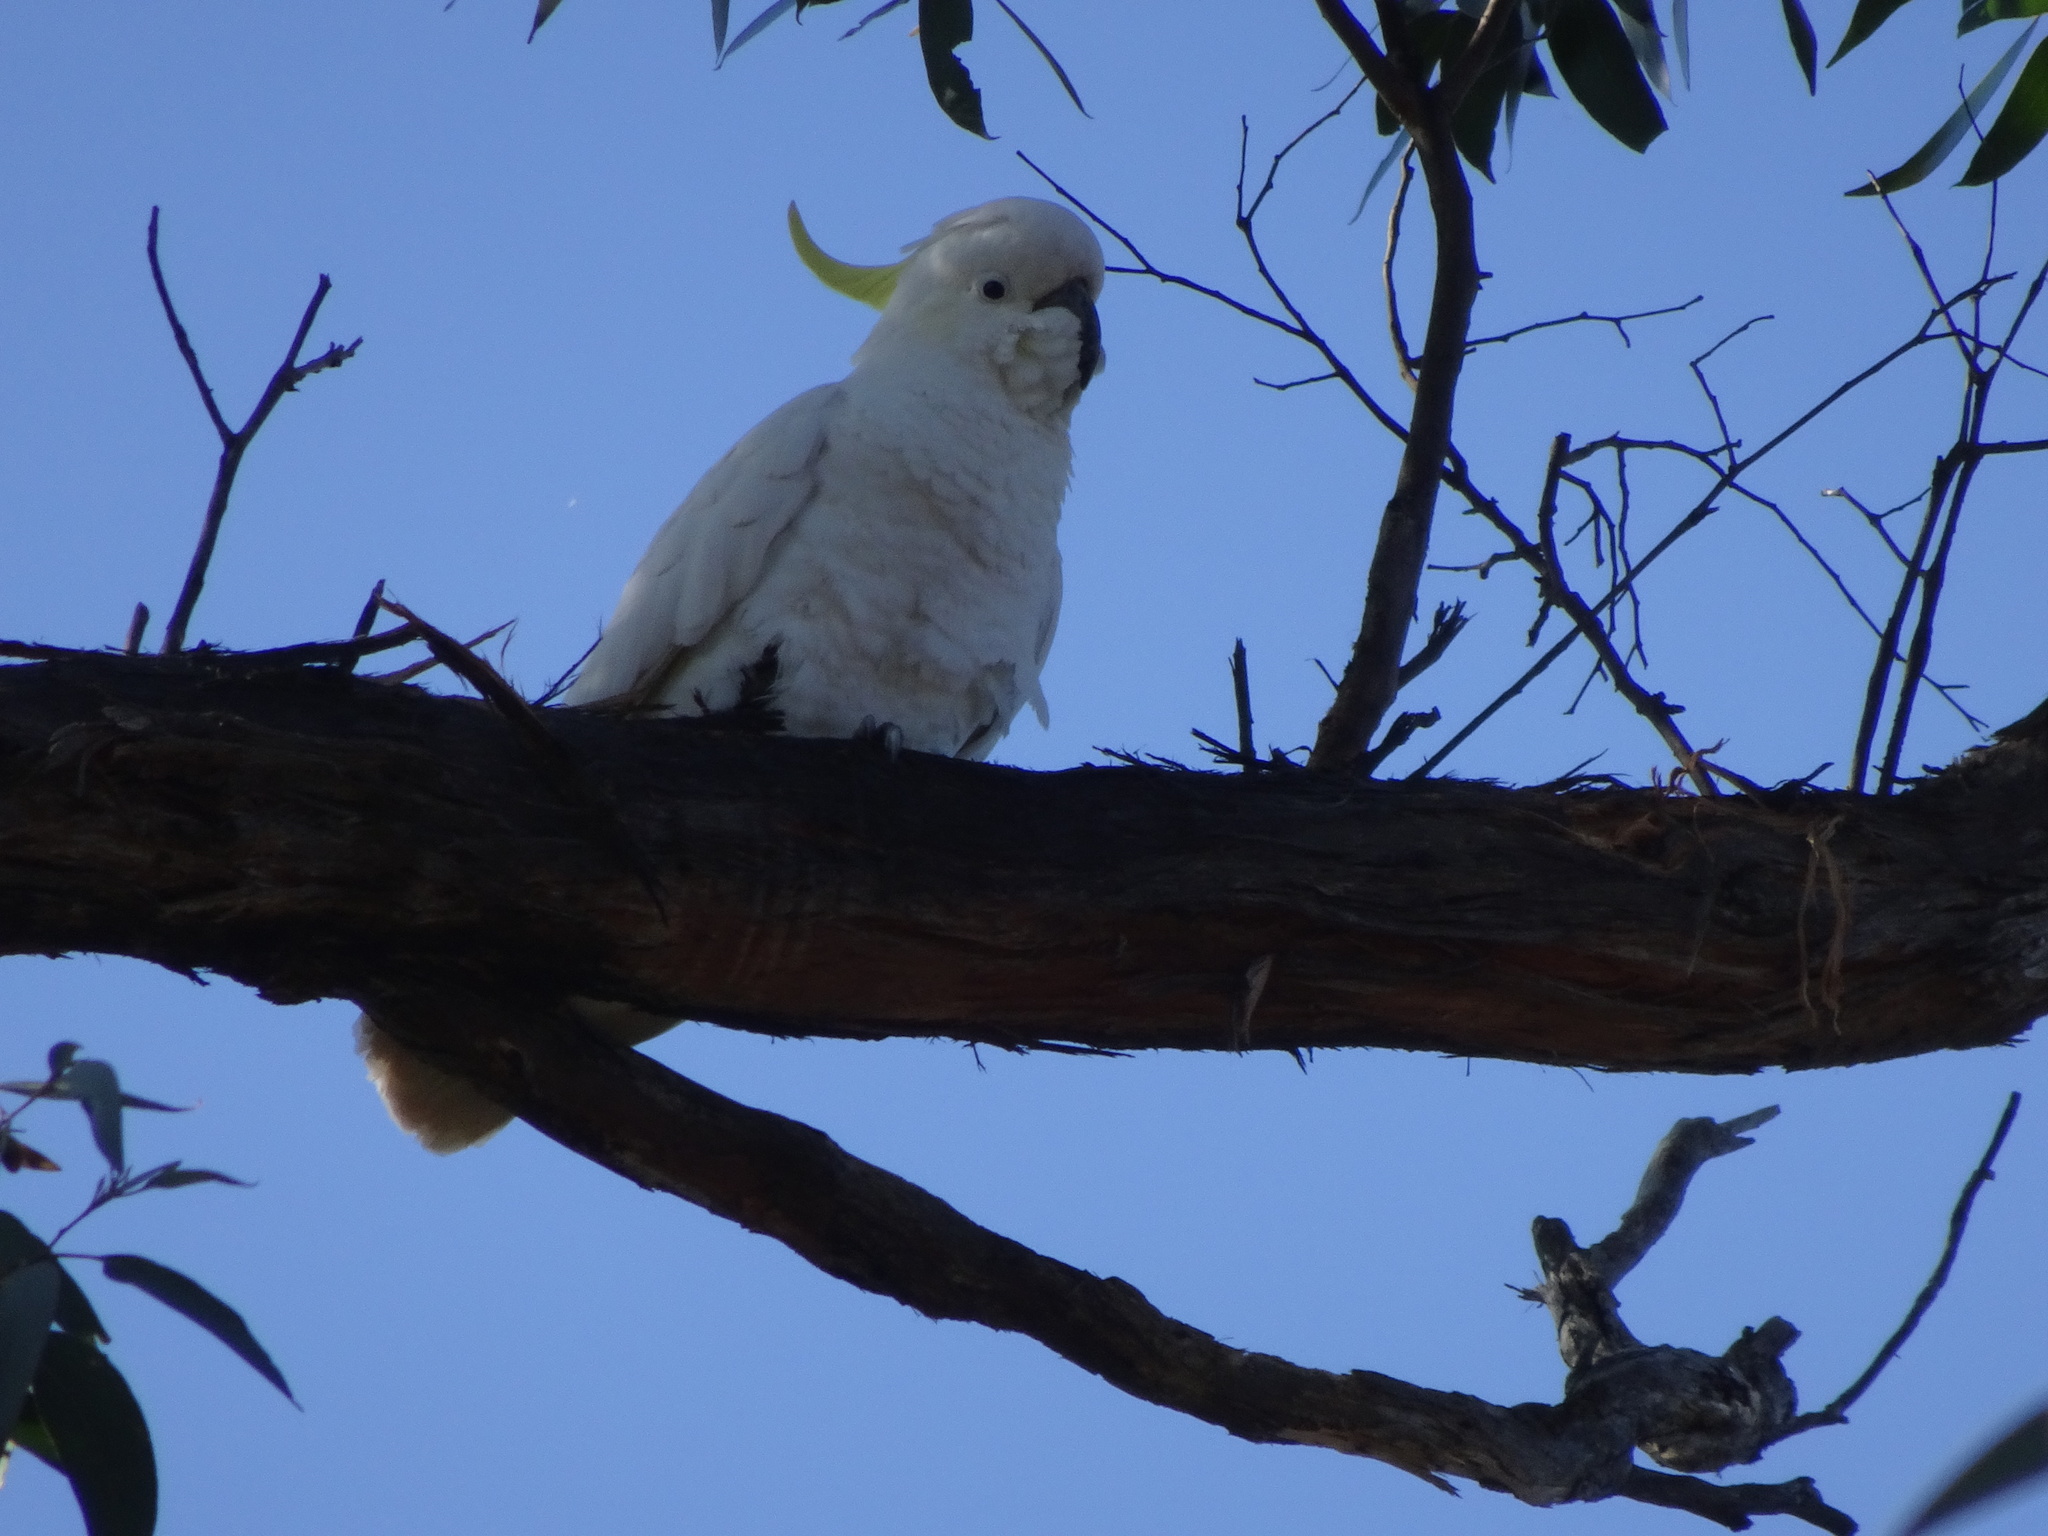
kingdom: Animalia
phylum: Chordata
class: Aves
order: Psittaciformes
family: Psittacidae
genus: Cacatua
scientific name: Cacatua galerita
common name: Sulphur-crested cockatoo
